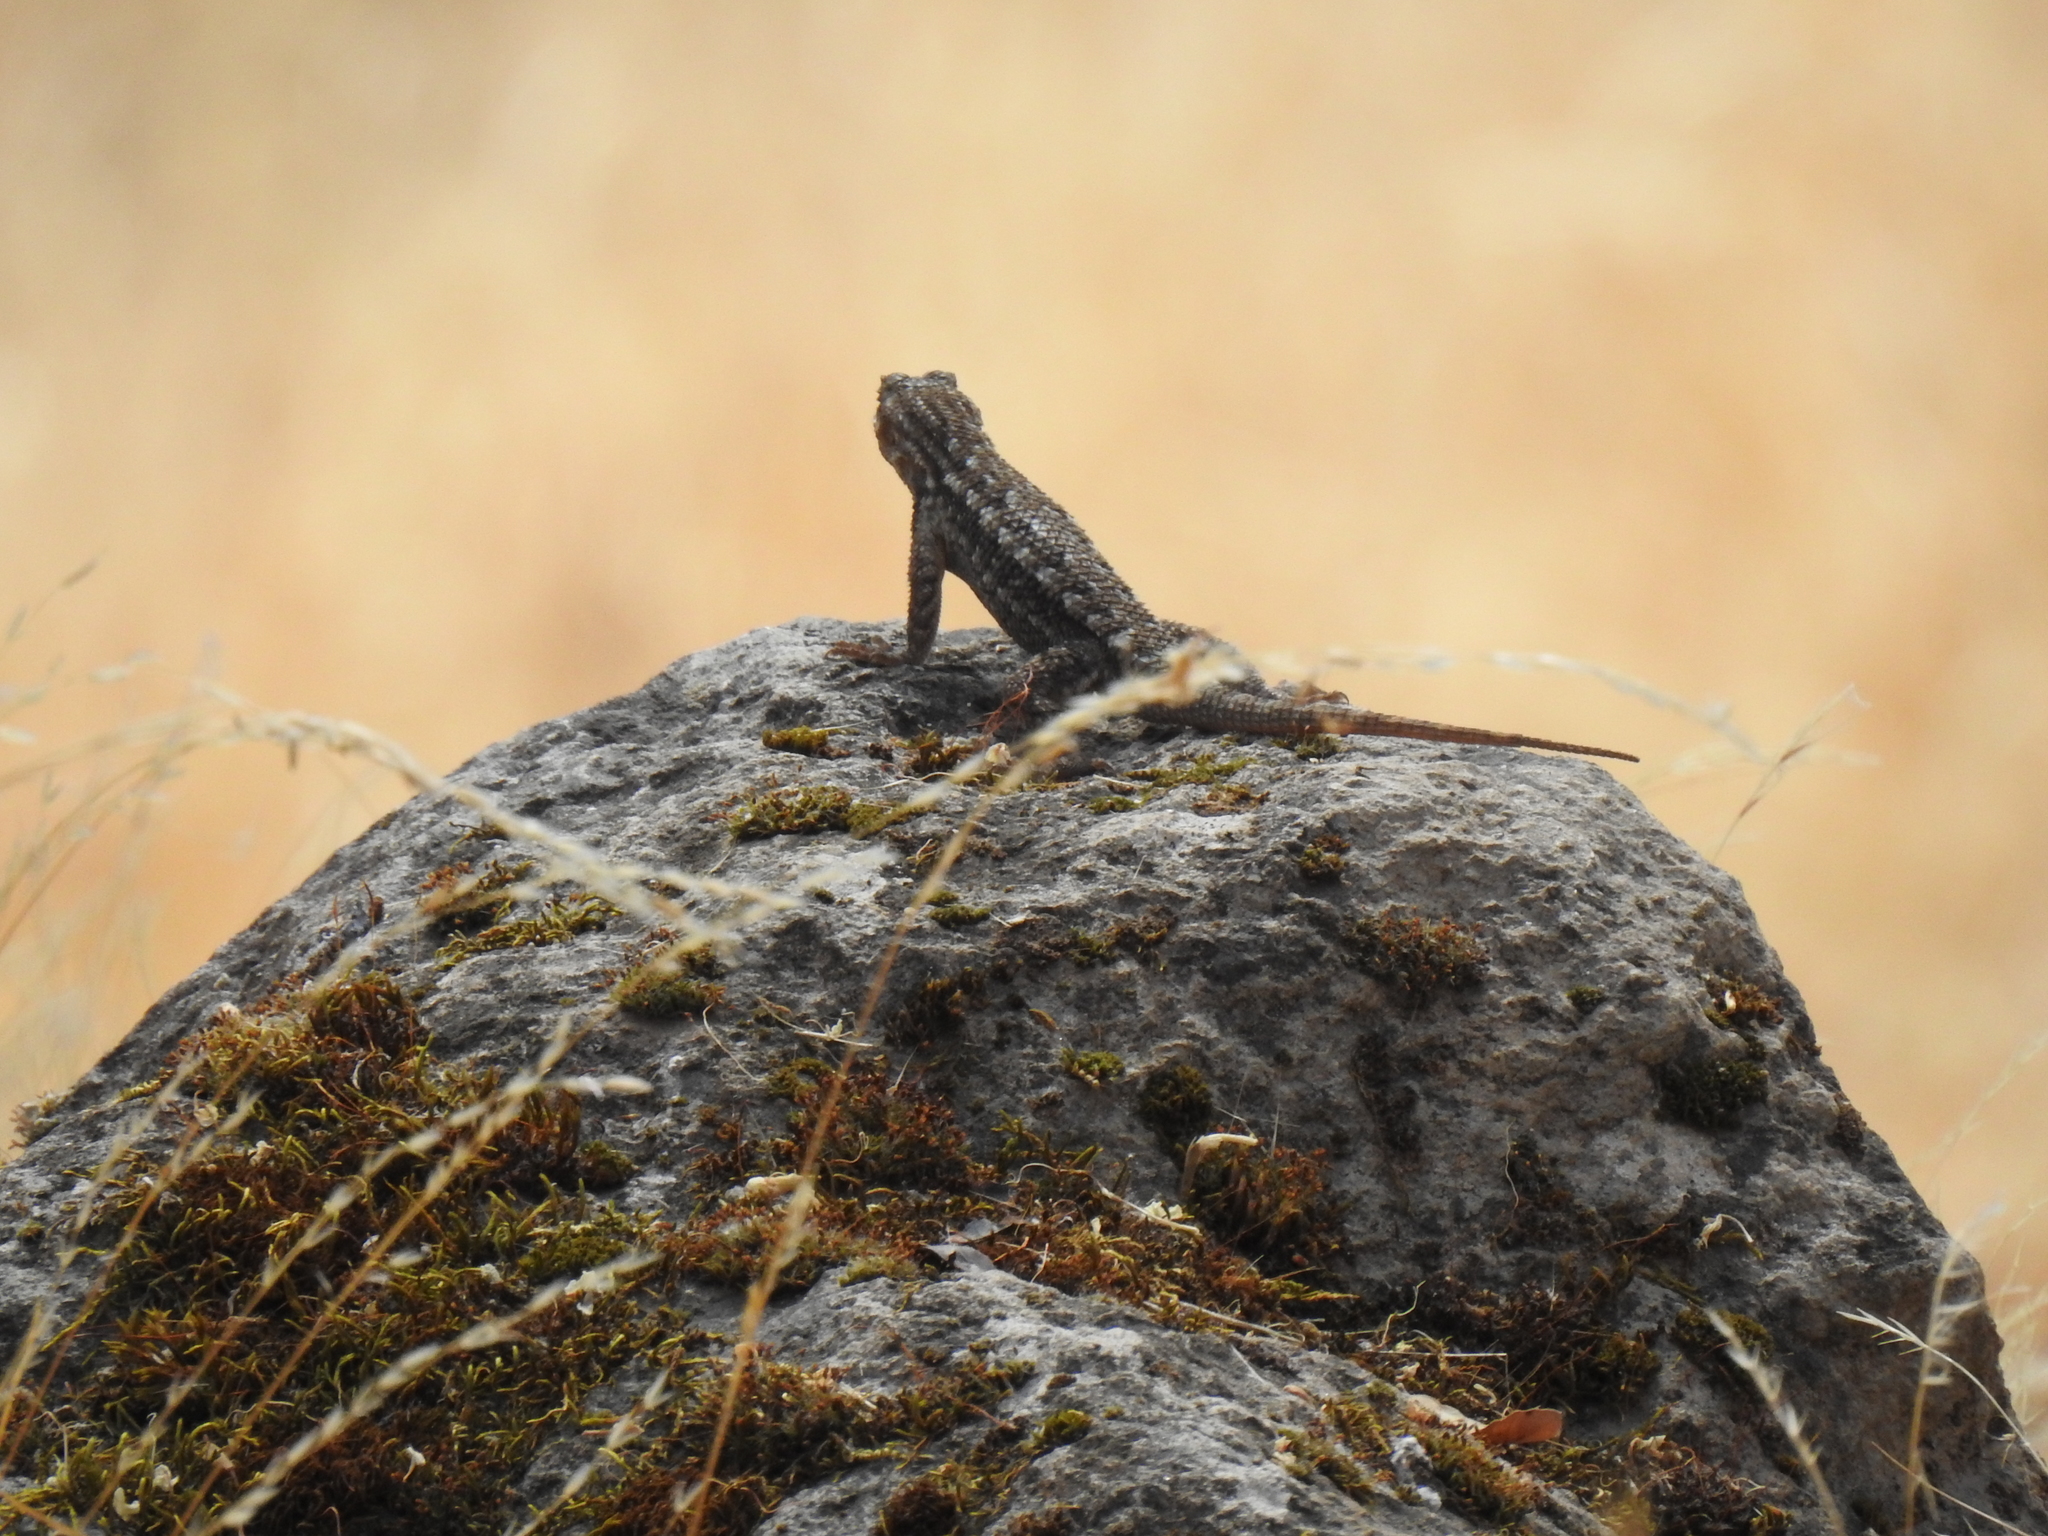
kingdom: Animalia
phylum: Chordata
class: Squamata
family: Phrynosomatidae
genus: Sceloporus
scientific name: Sceloporus occidentalis
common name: Western fence lizard
